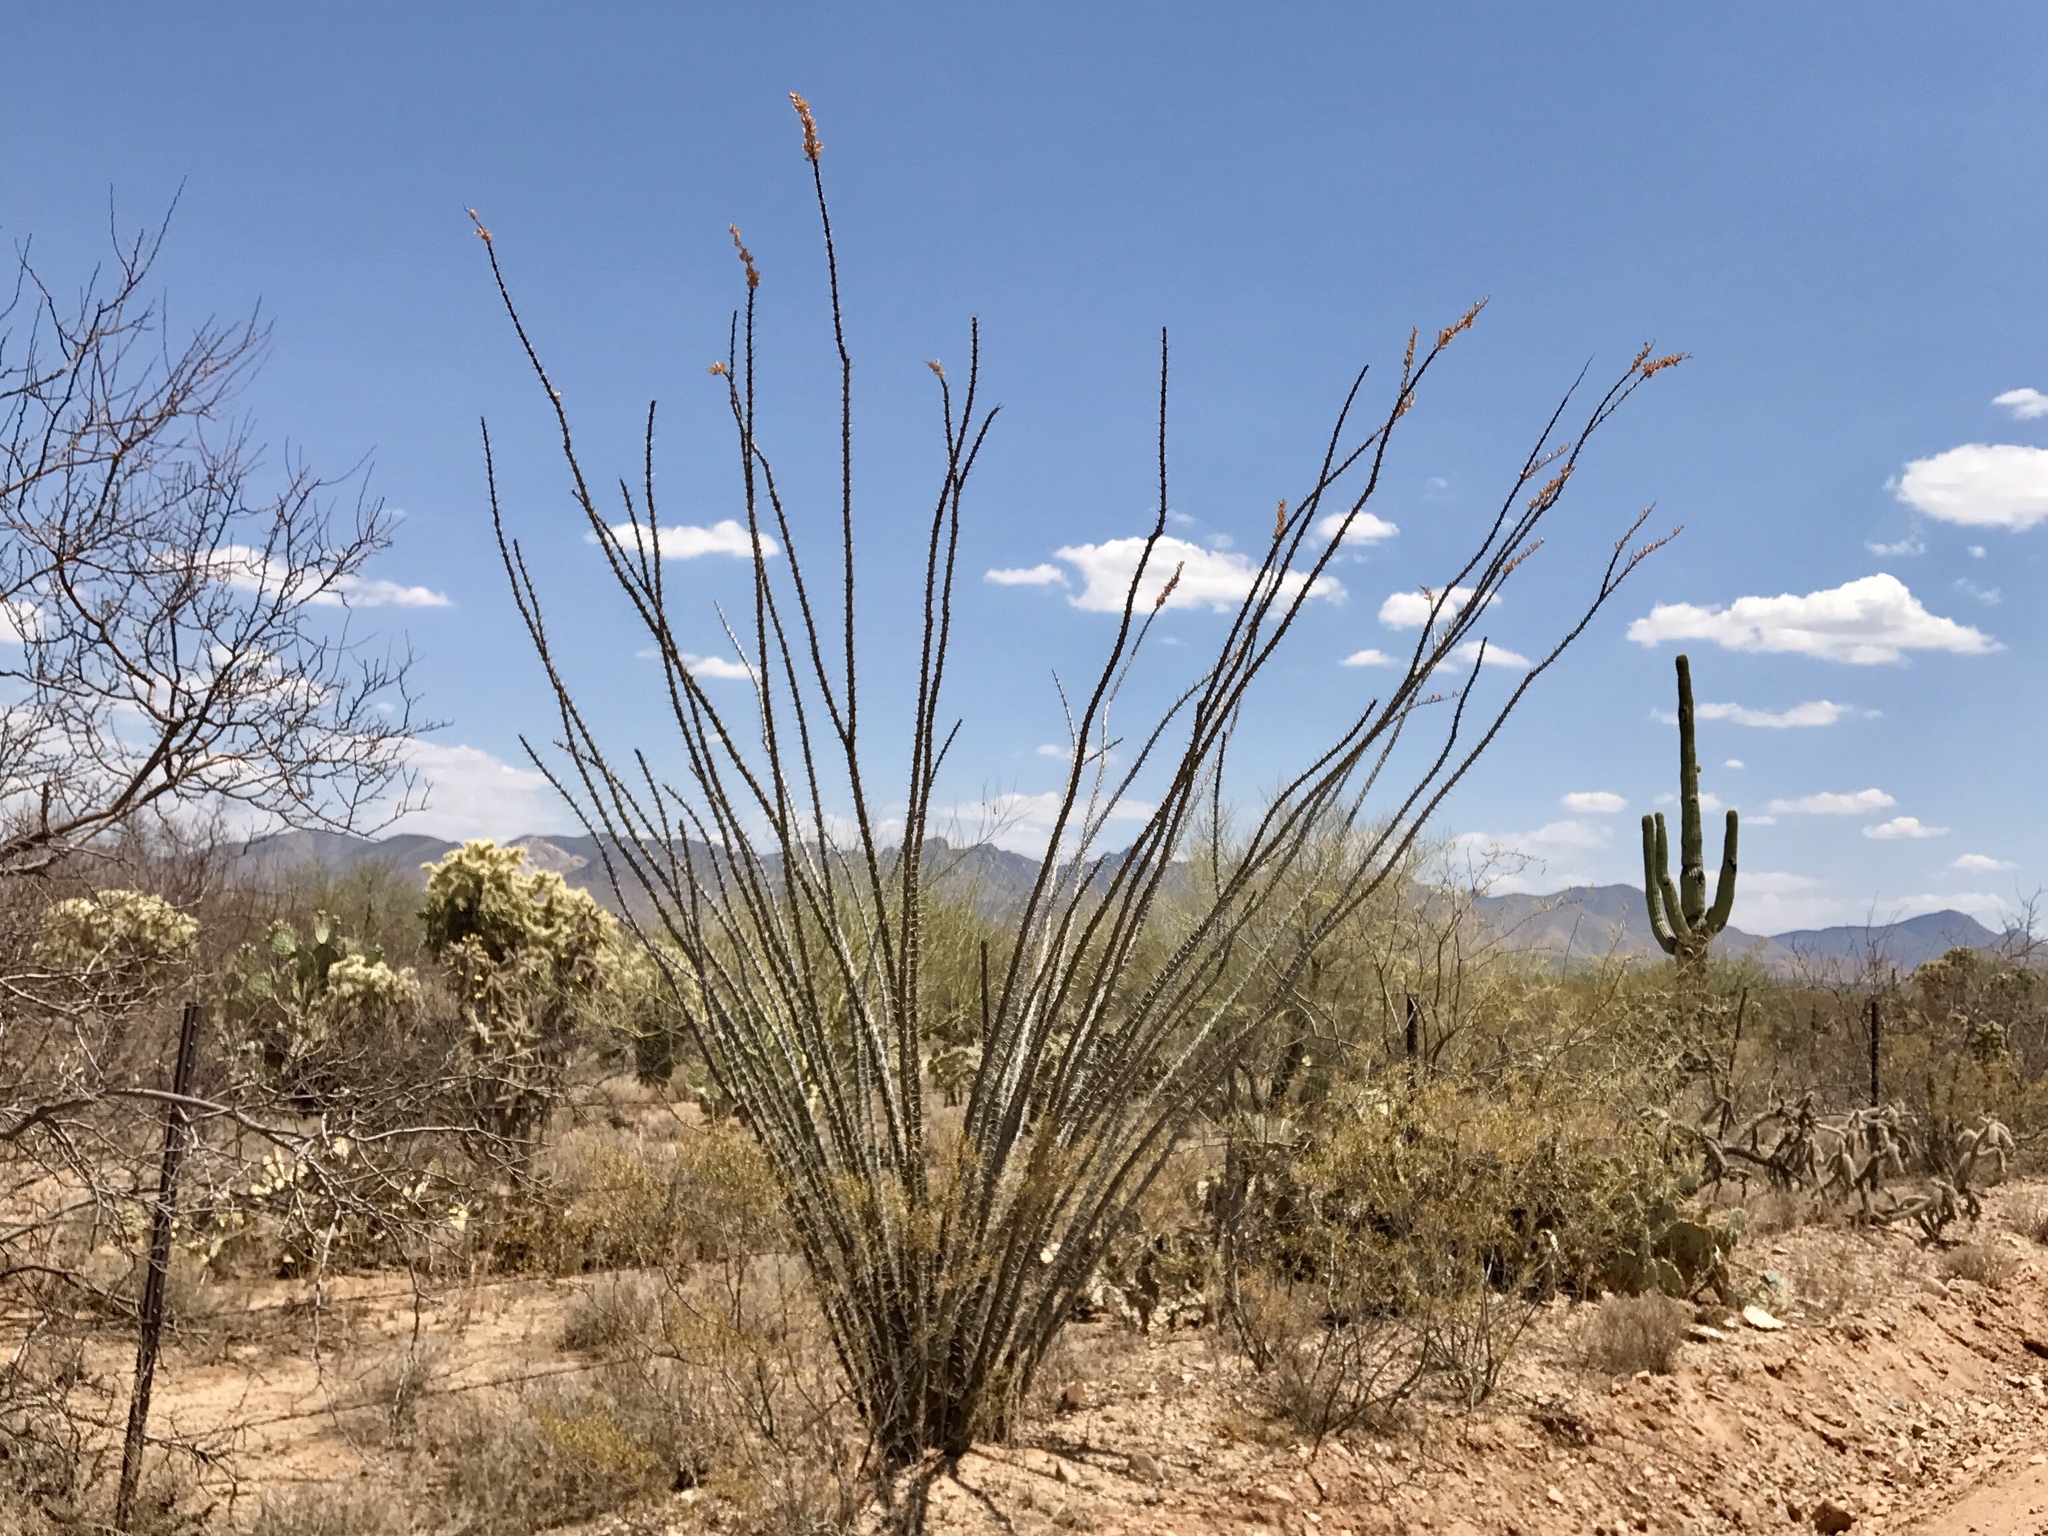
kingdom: Plantae
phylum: Tracheophyta
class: Magnoliopsida
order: Ericales
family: Fouquieriaceae
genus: Fouquieria
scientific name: Fouquieria splendens
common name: Vine-cactus
